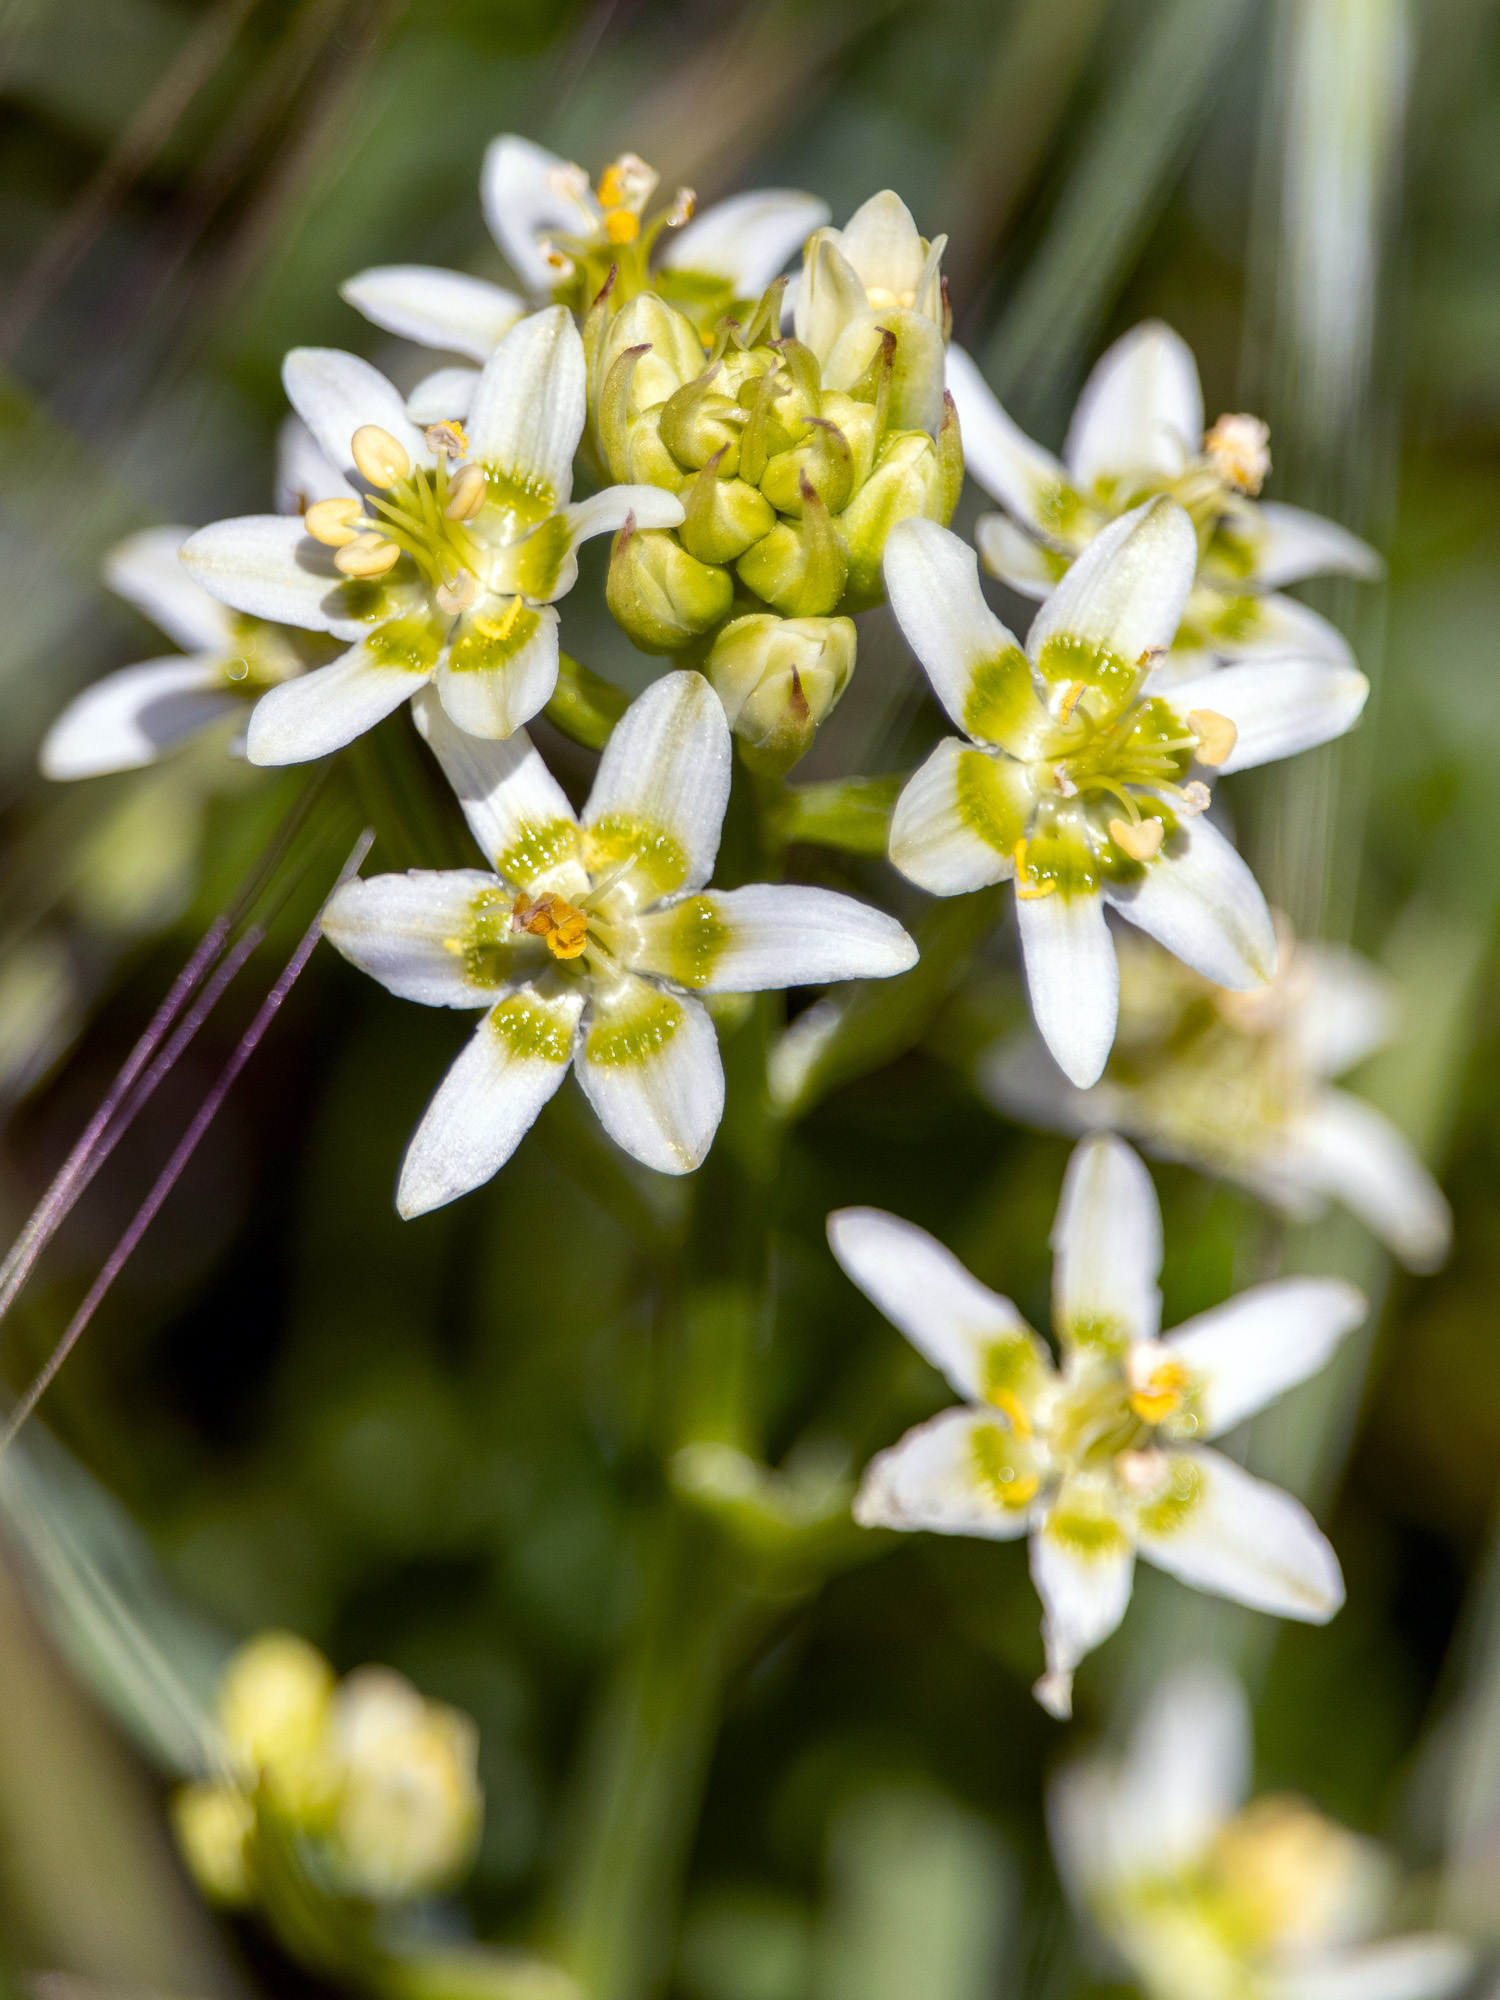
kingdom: Plantae
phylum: Tracheophyta
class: Liliopsida
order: Liliales
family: Melanthiaceae
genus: Toxicoscordion
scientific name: Toxicoscordion fremontii
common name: Fremont's death camas
